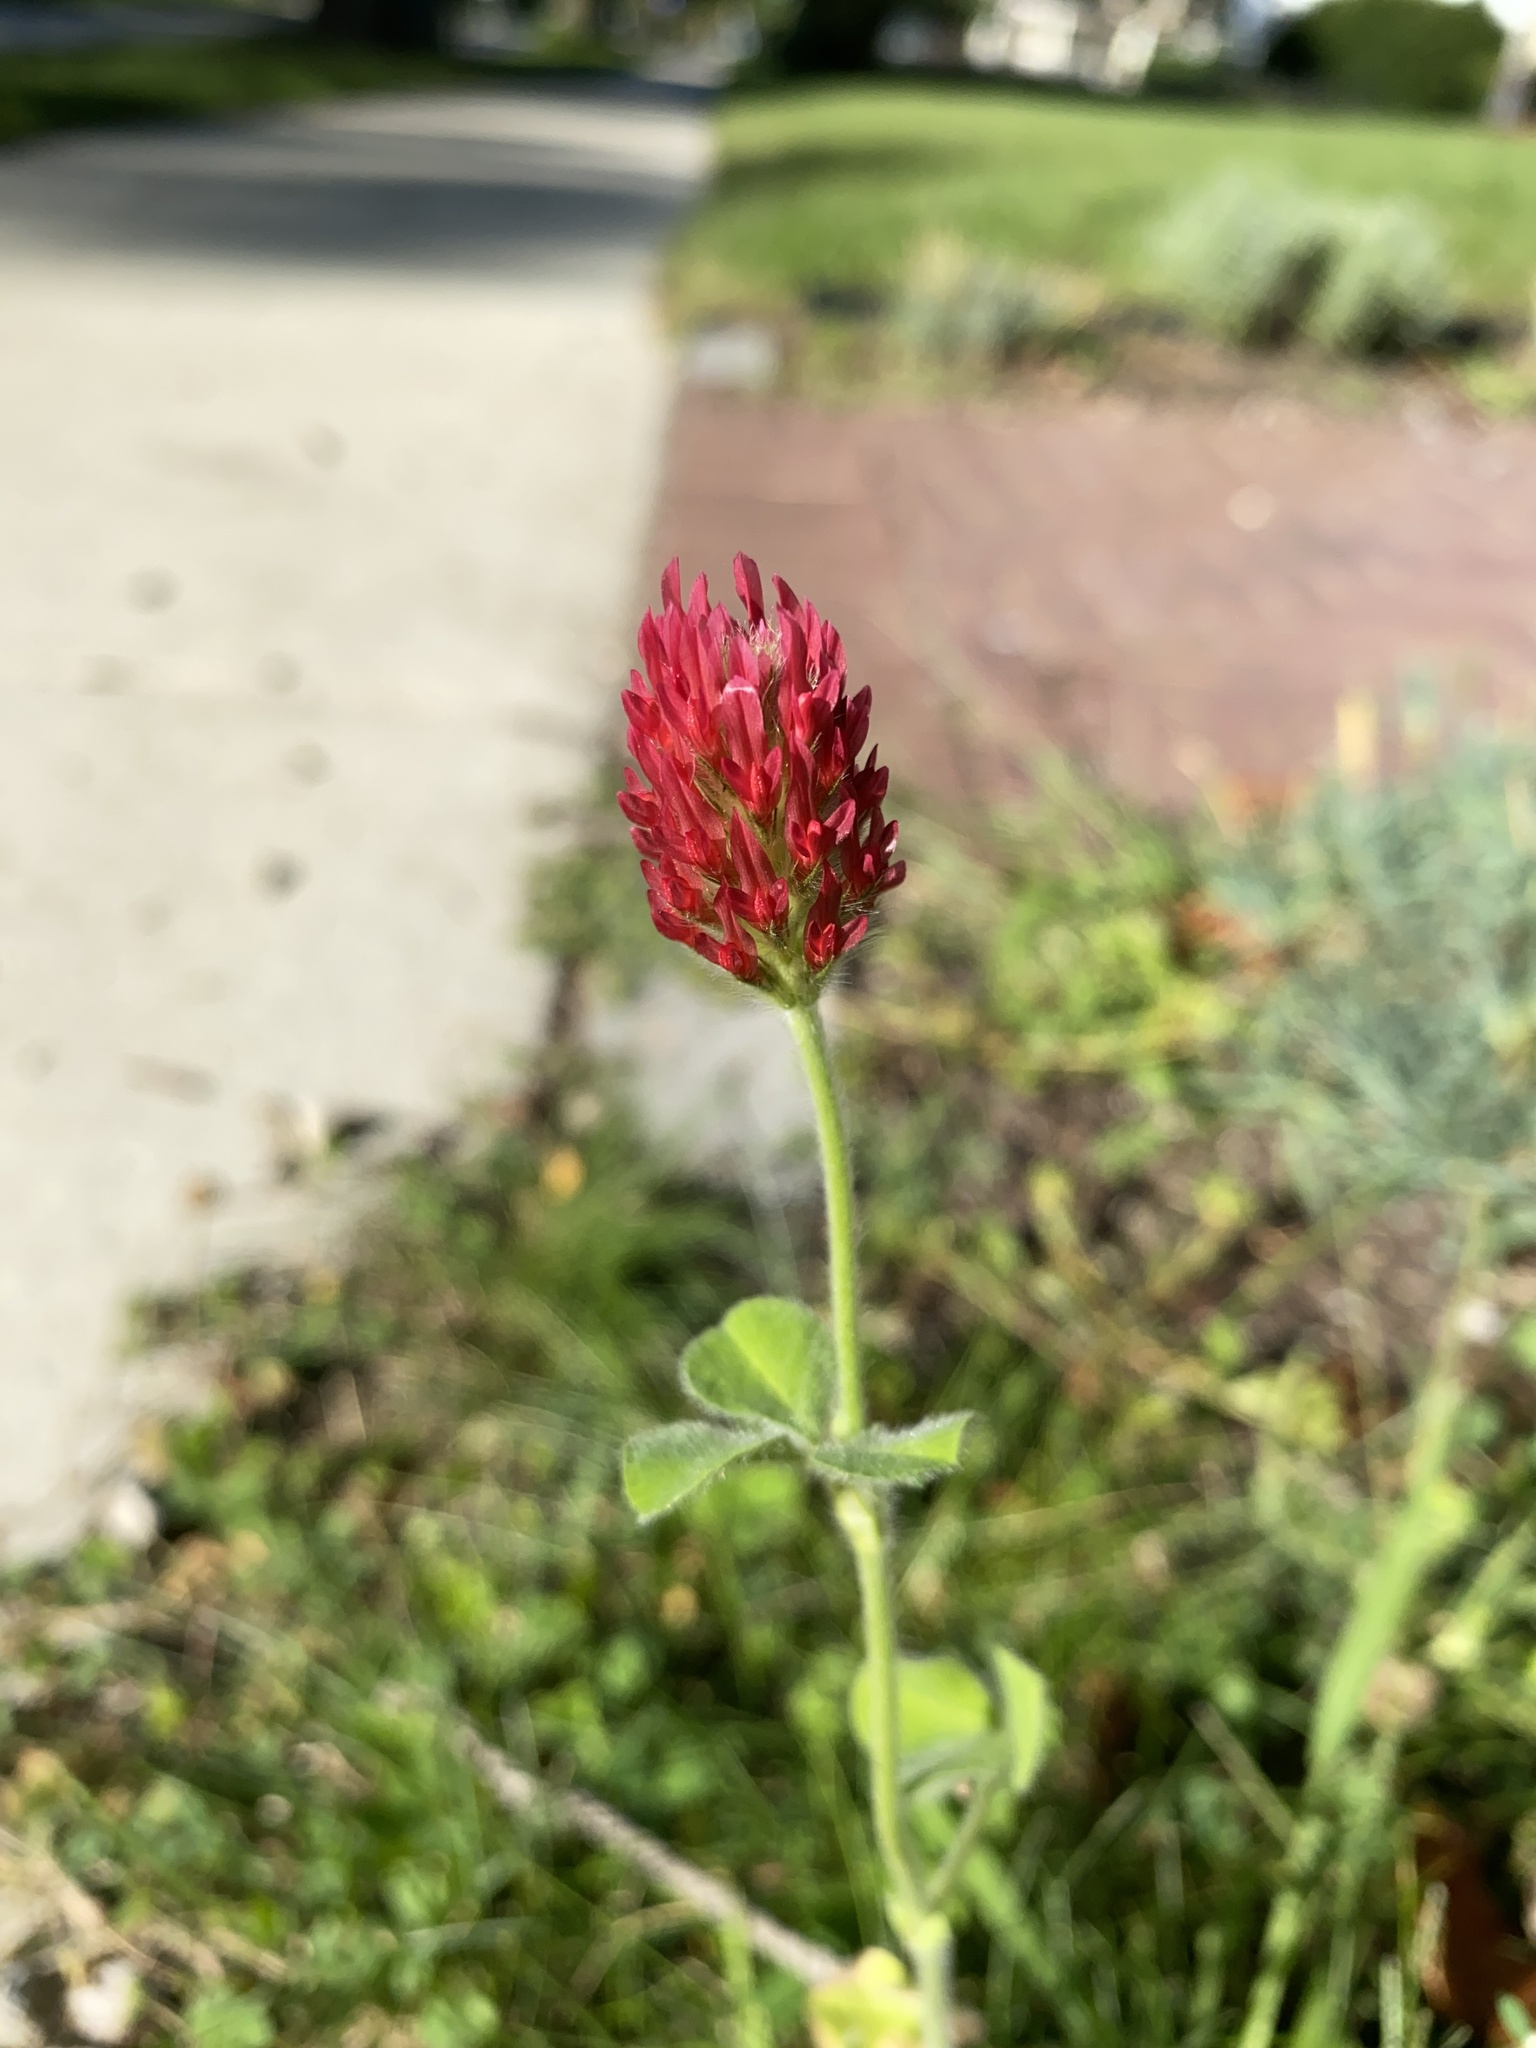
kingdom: Plantae
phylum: Tracheophyta
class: Magnoliopsida
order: Fabales
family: Fabaceae
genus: Trifolium
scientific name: Trifolium incarnatum
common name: Crimson clover
